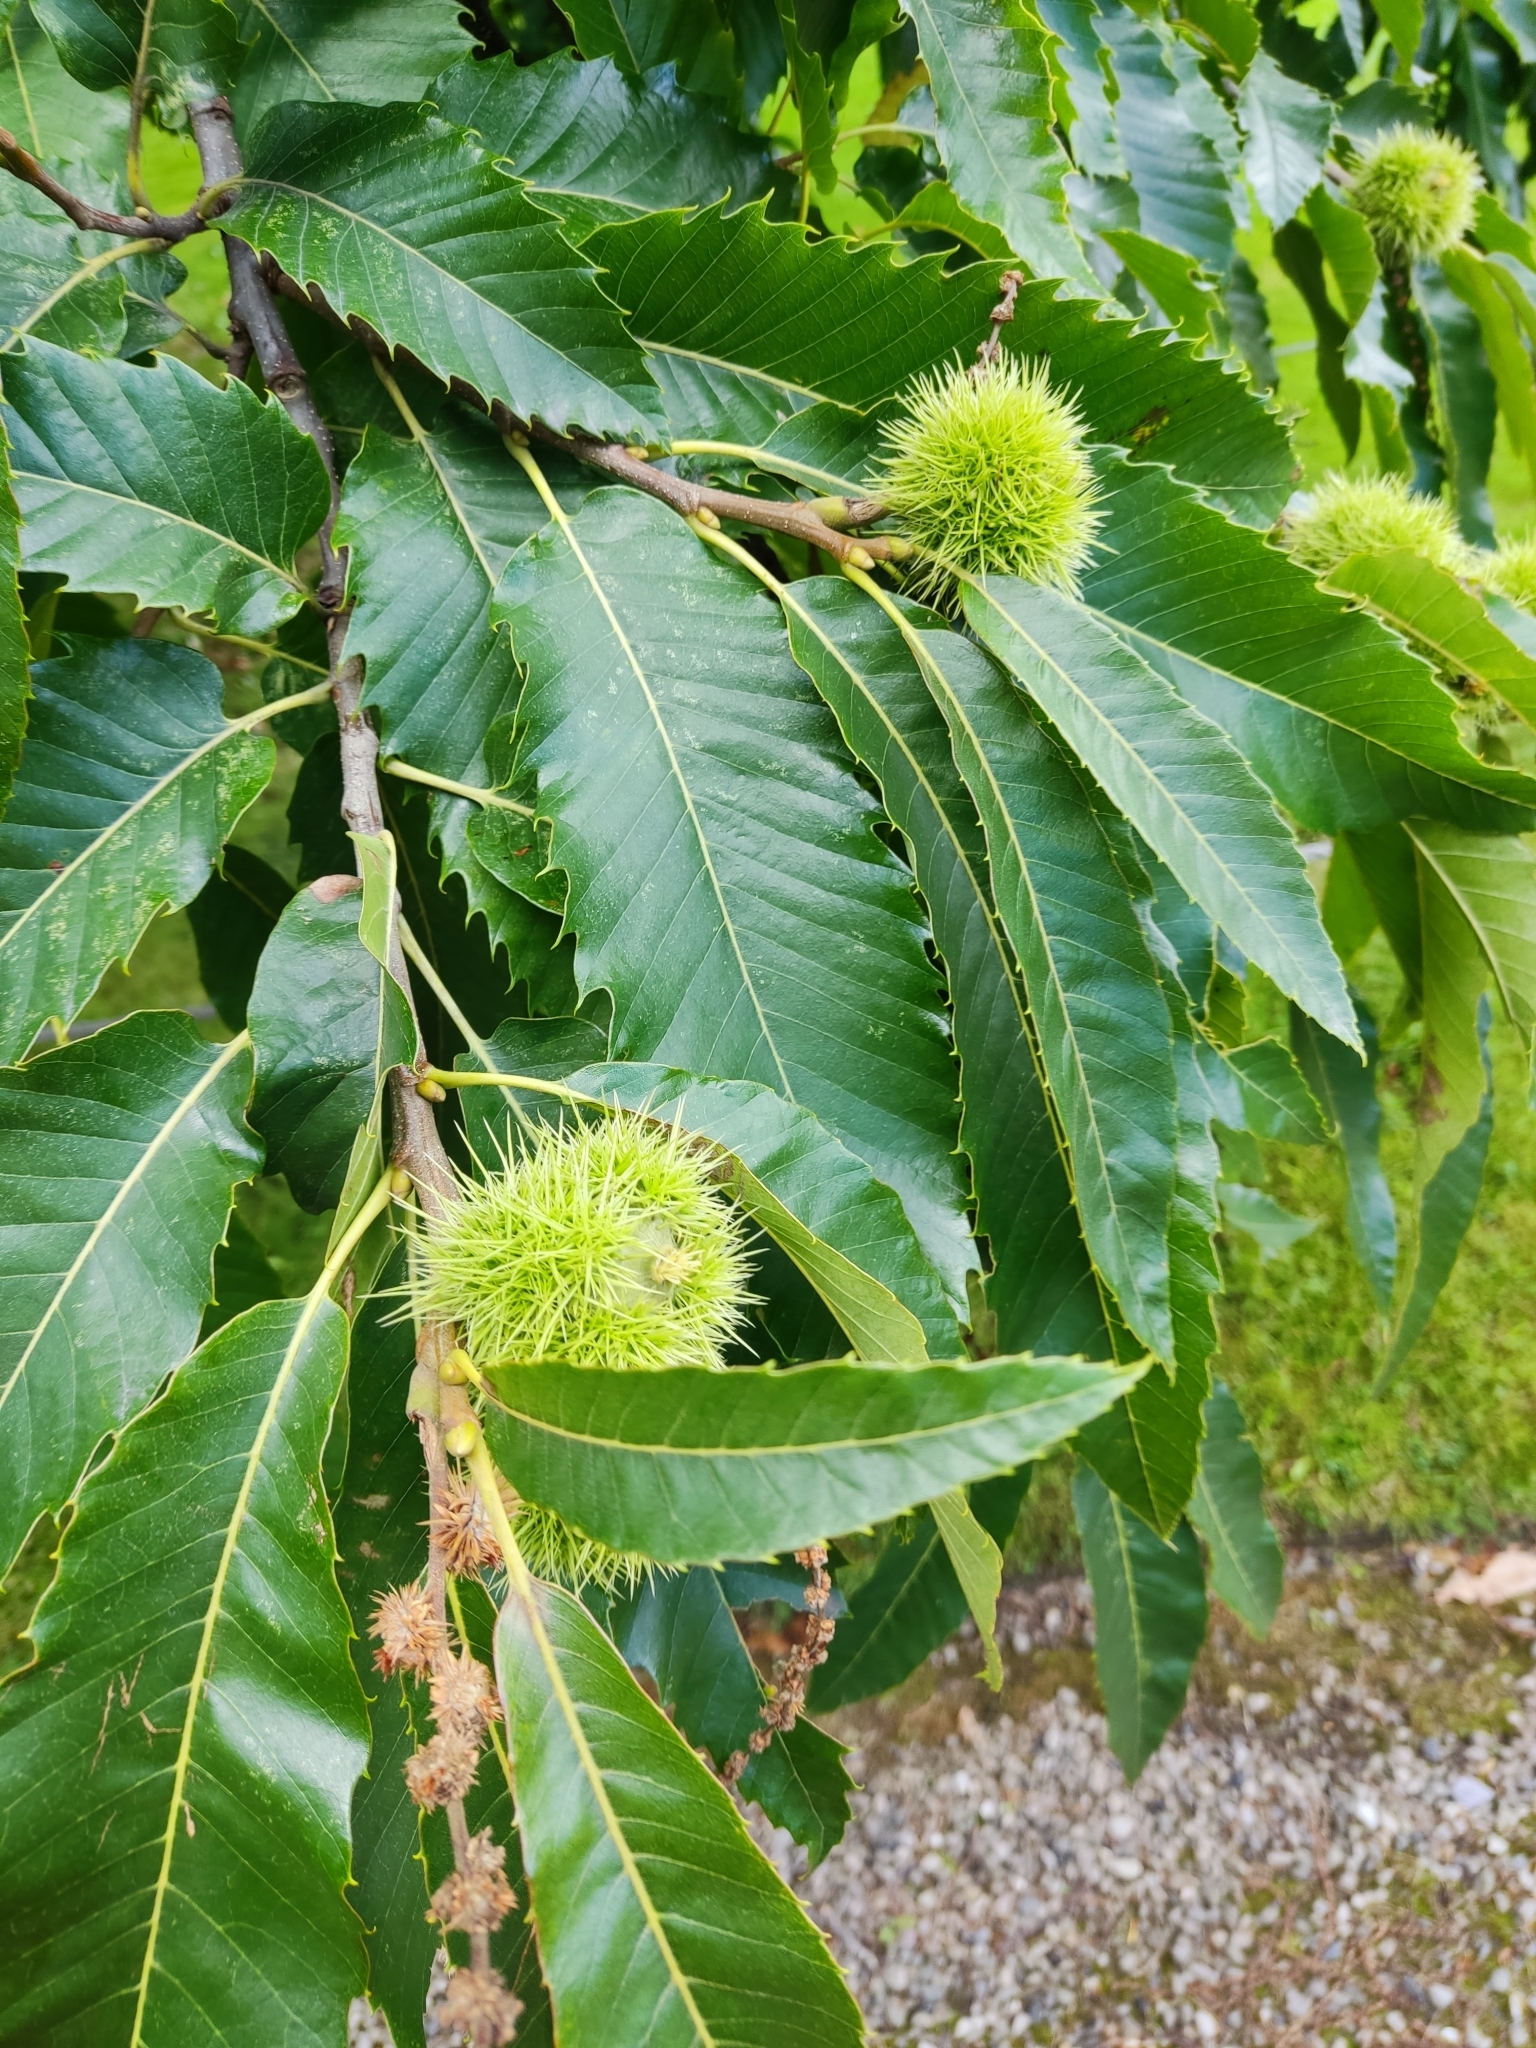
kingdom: Plantae
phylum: Tracheophyta
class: Magnoliopsida
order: Fagales
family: Fagaceae
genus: Castanea
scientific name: Castanea sativa
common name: Sweet chestnut
